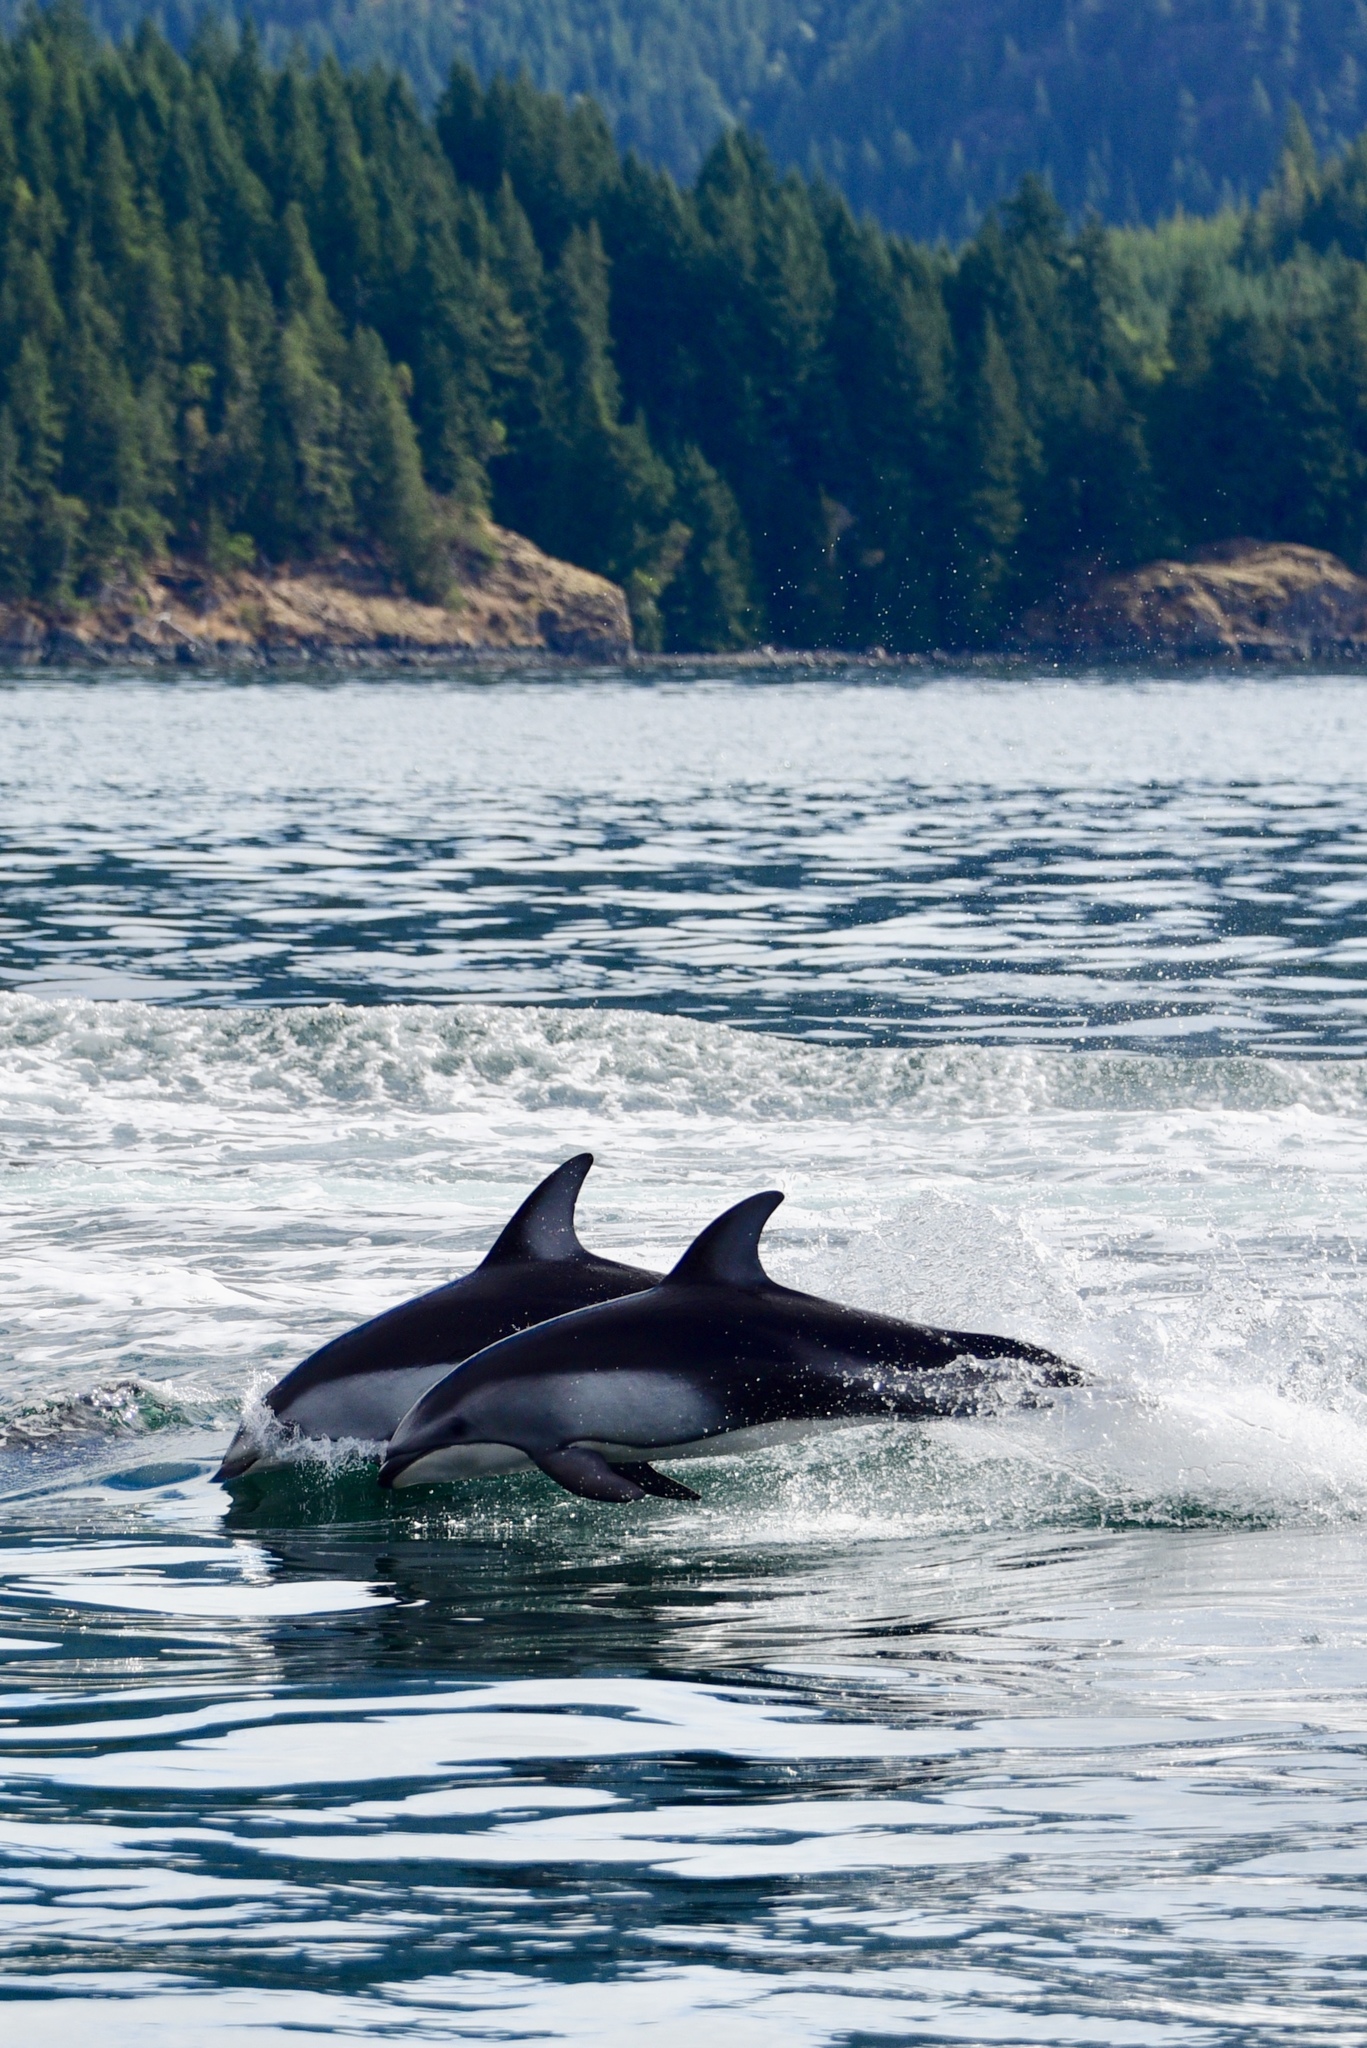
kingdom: Animalia
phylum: Chordata
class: Mammalia
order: Cetacea
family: Delphinidae
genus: Lagenorhynchus
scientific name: Lagenorhynchus obliquidens
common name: Pacific white-sided dolphin
